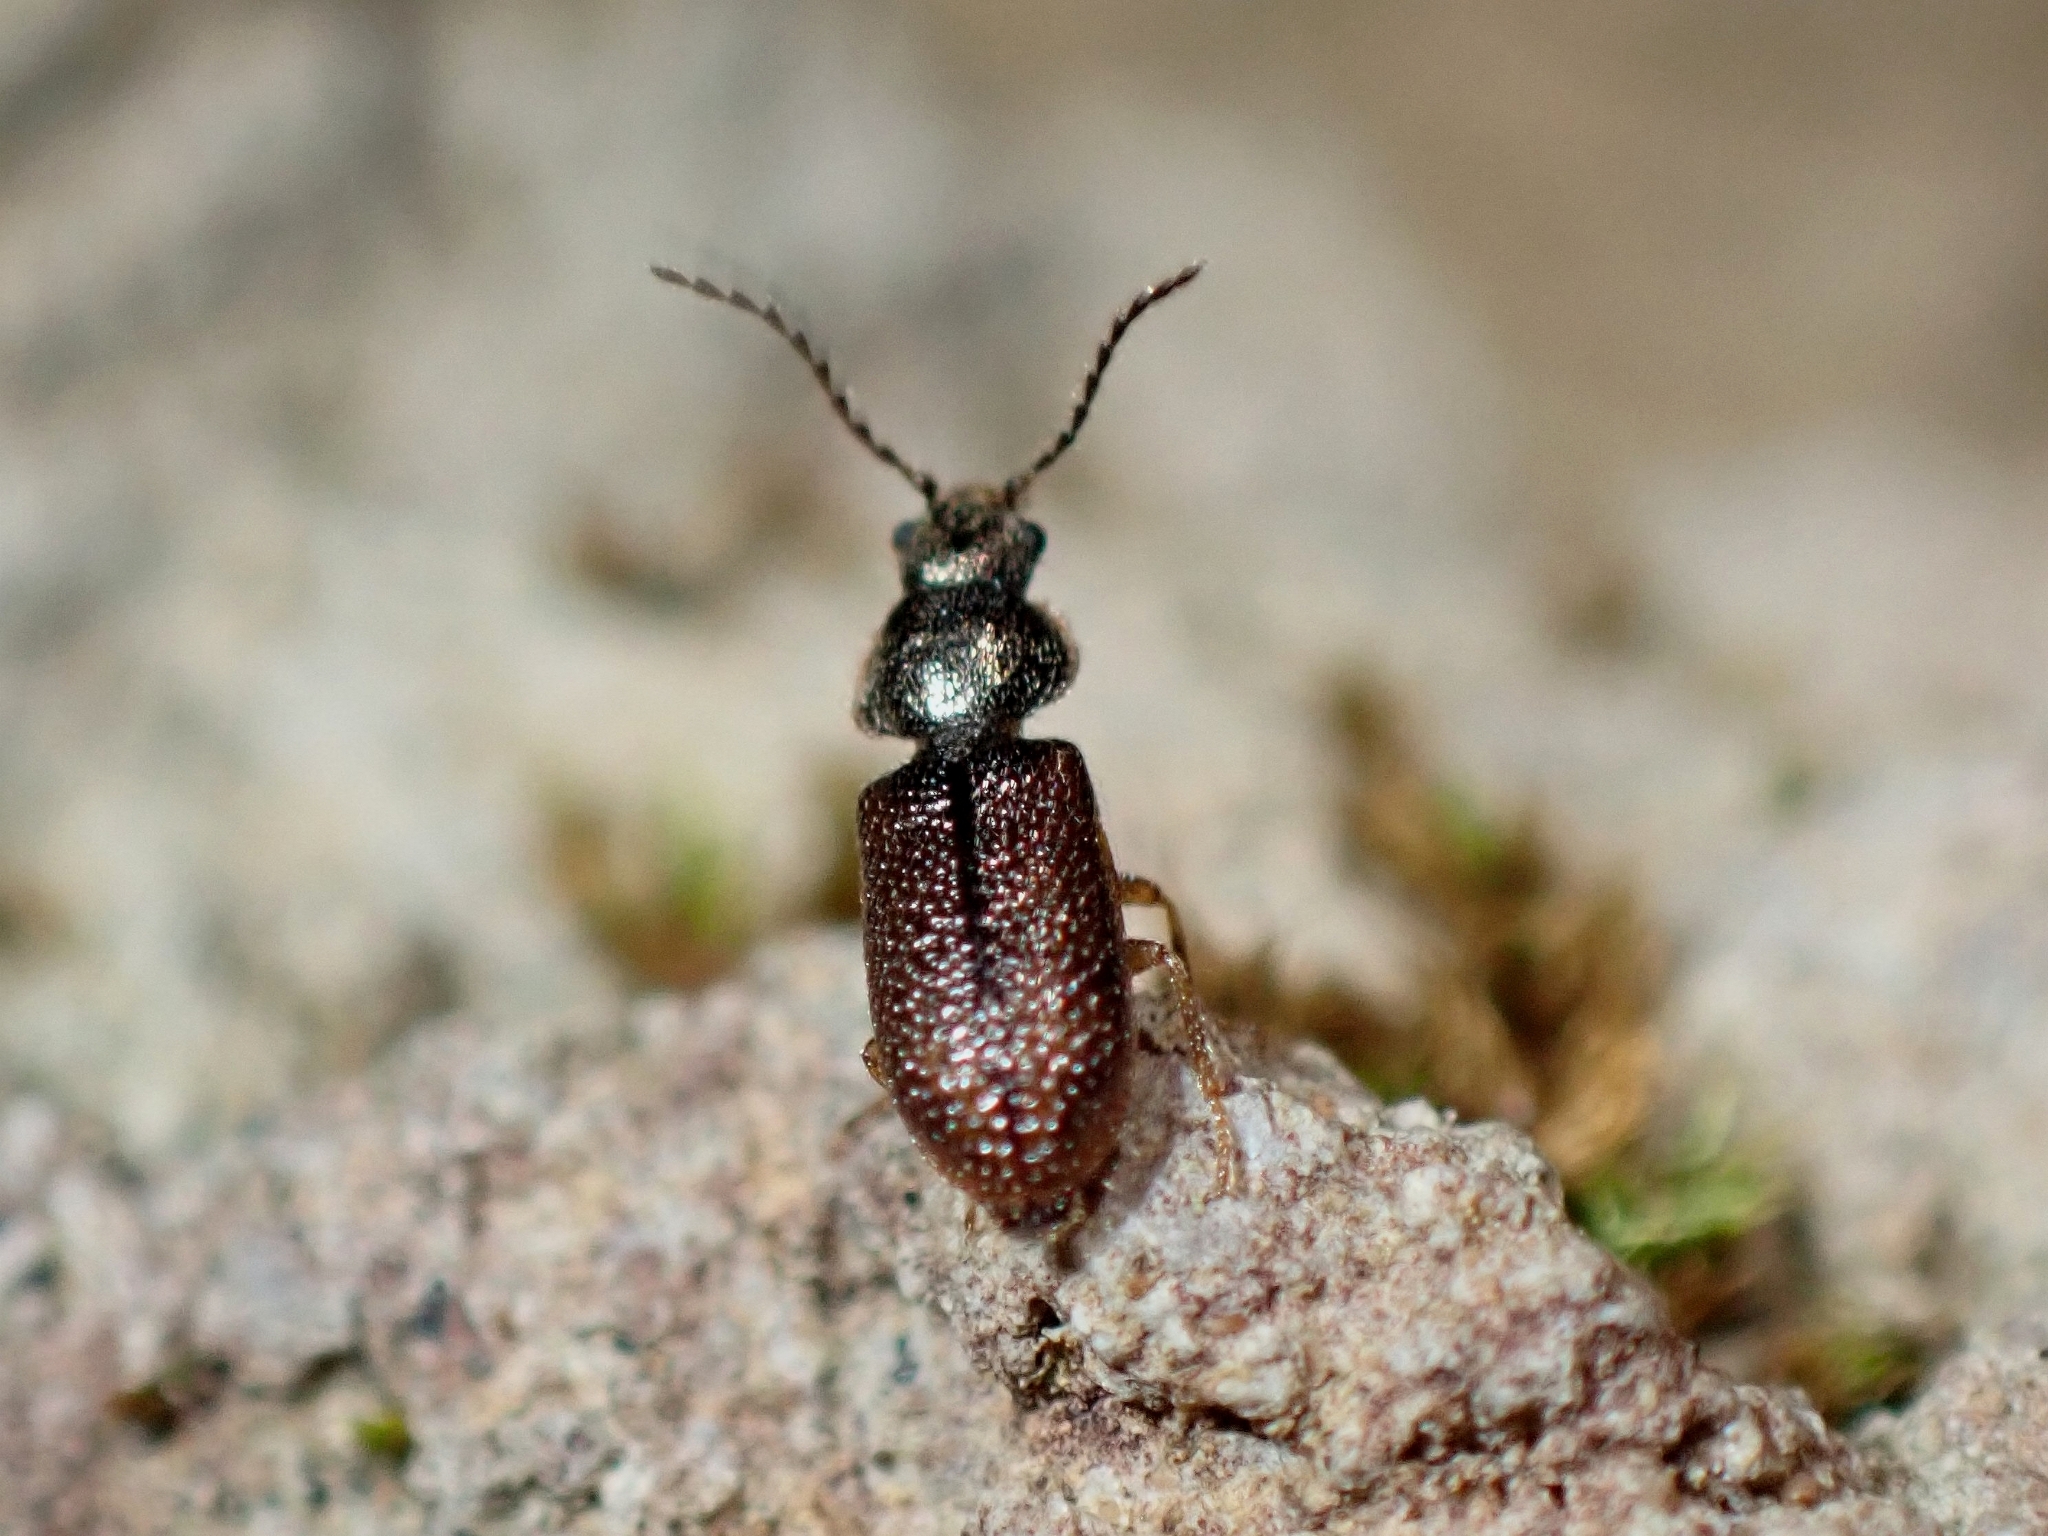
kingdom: Animalia
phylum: Arthropoda
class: Insecta
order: Coleoptera
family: Dasytidae
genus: Aplocnemus
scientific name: Aplocnemus sculpturatus
